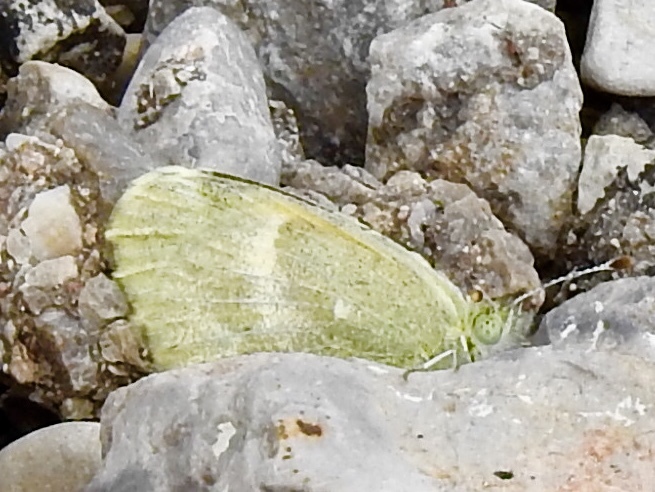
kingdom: Animalia
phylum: Arthropoda
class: Insecta
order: Lepidoptera
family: Pieridae
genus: Nathalis
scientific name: Nathalis iole
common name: Dainty sulphur
